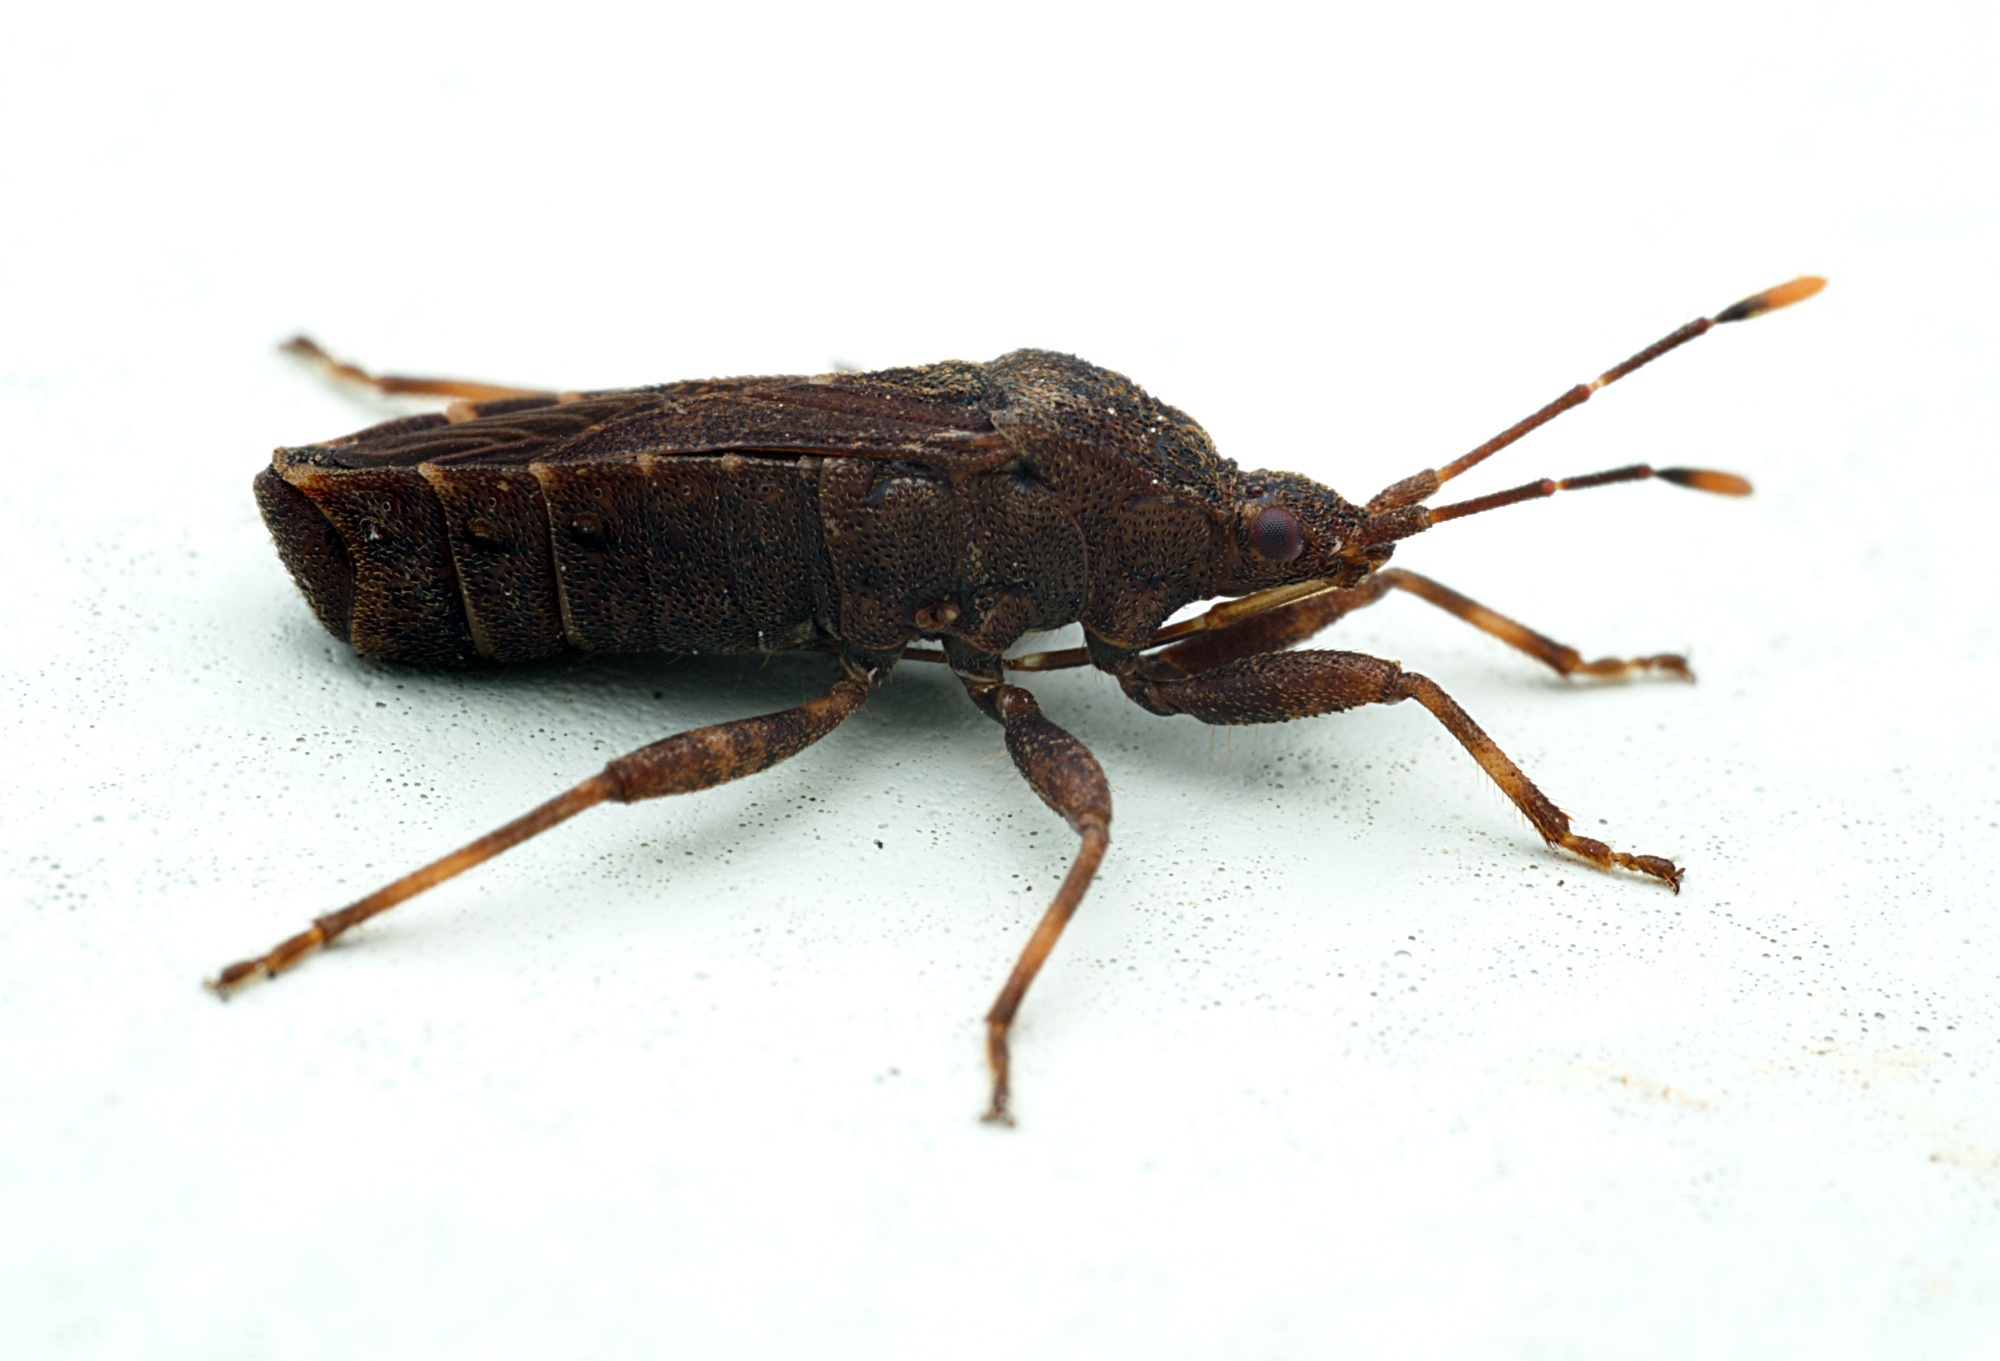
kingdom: Animalia
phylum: Arthropoda
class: Insecta
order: Hemiptera
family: Coreidae
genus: Acantholybas
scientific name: Acantholybas brunneus
